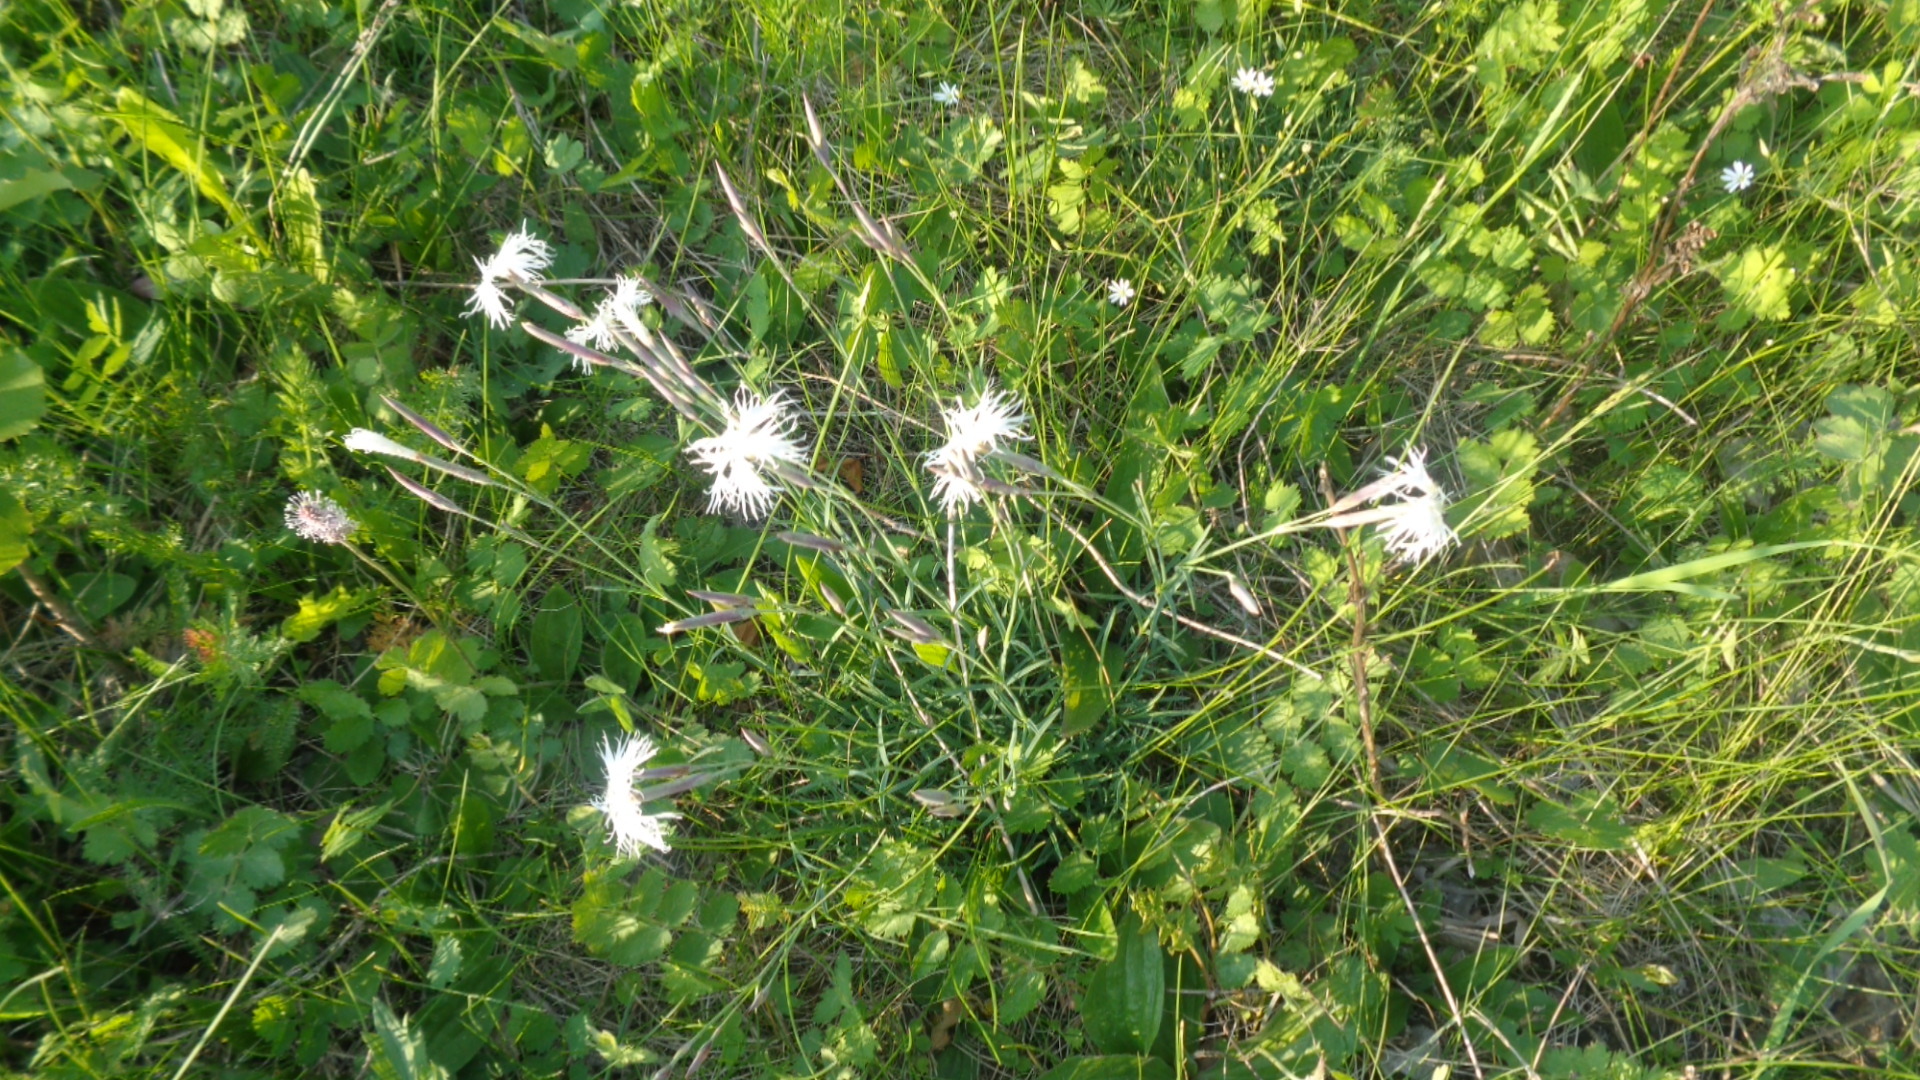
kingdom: Plantae
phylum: Tracheophyta
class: Magnoliopsida
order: Caryophyllales
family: Caryophyllaceae
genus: Dianthus
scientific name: Dianthus acicularis
